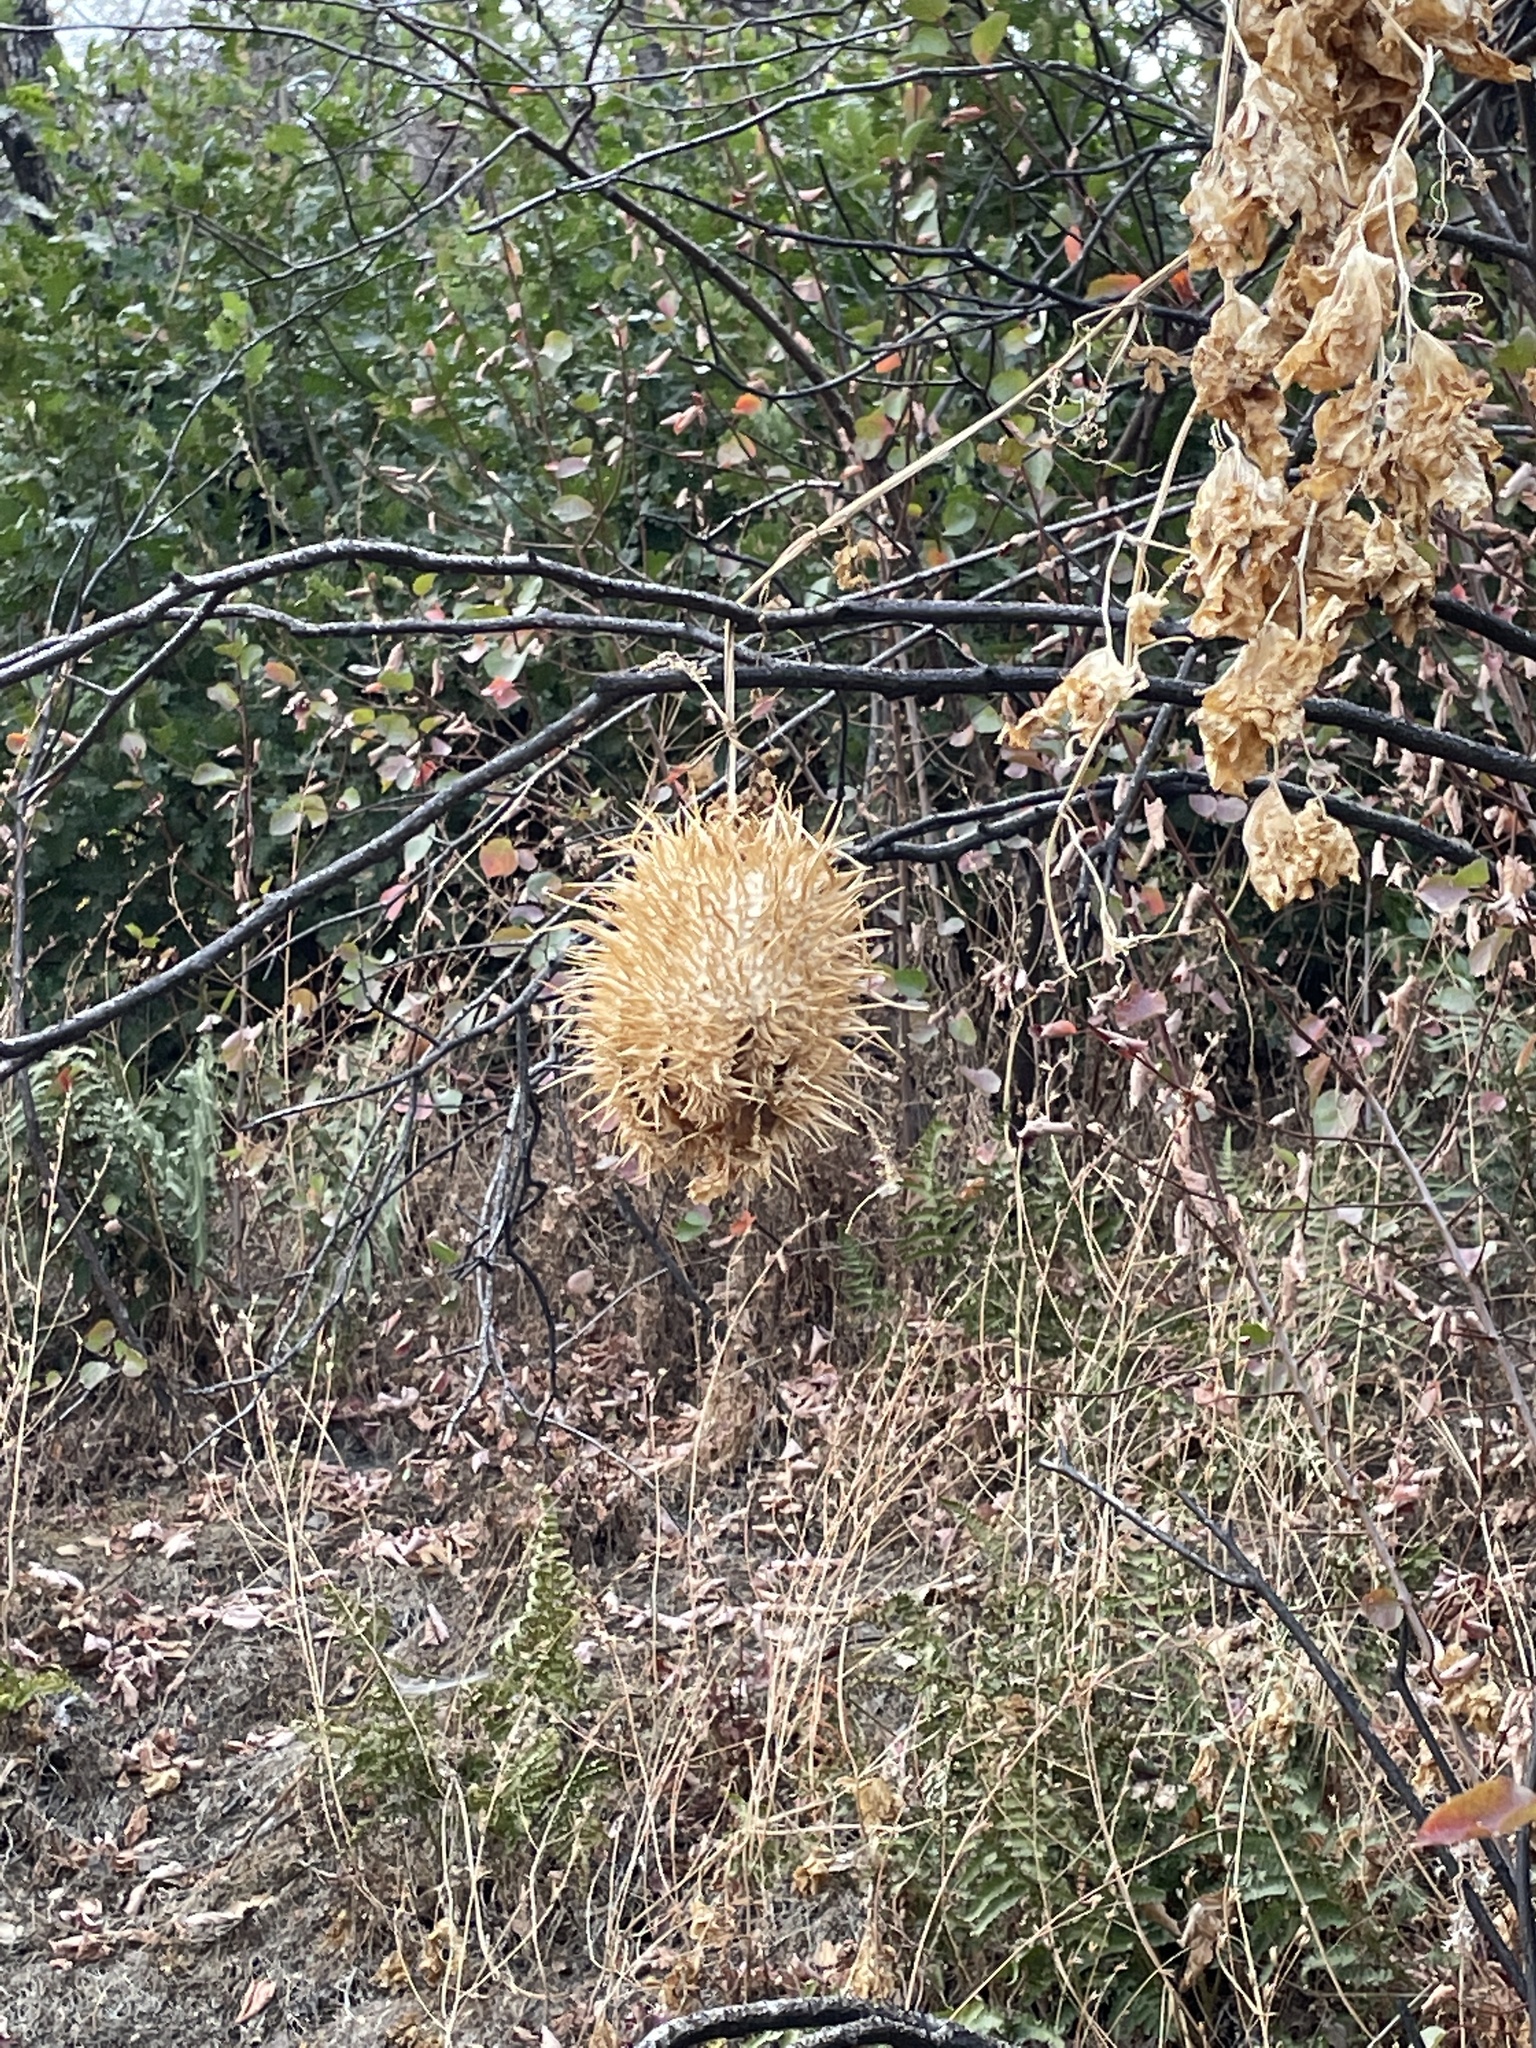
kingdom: Plantae
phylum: Tracheophyta
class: Magnoliopsida
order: Cucurbitales
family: Cucurbitaceae
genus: Marah
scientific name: Marah horrida
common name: Sierra manroot
